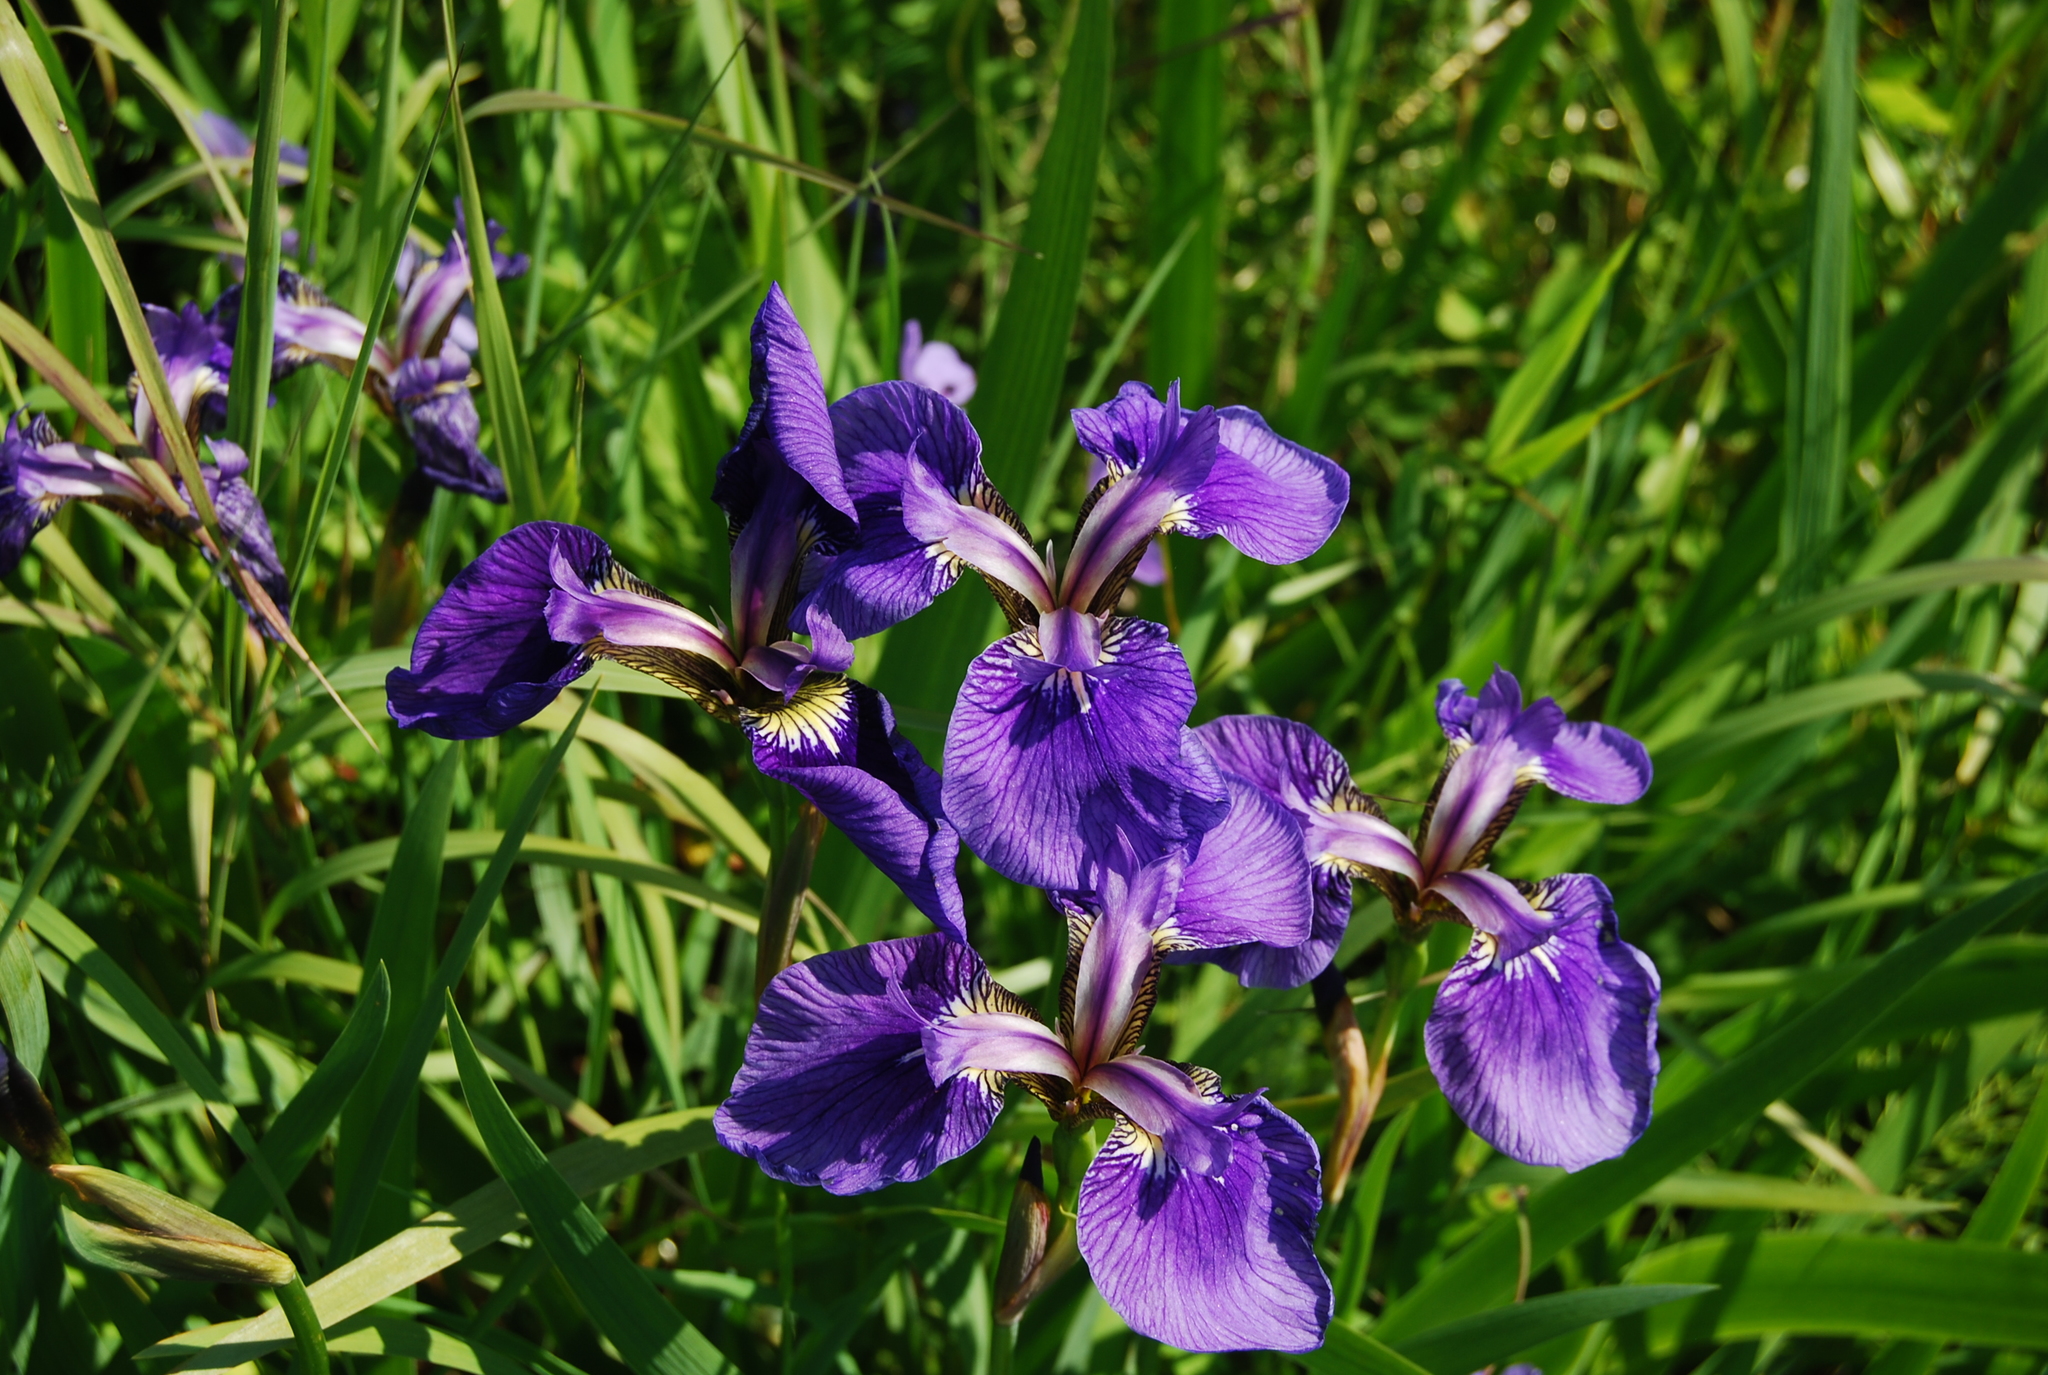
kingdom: Plantae
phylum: Tracheophyta
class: Liliopsida
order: Asparagales
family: Iridaceae
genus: Iris
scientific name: Iris setosa
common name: Arctic blue flag
